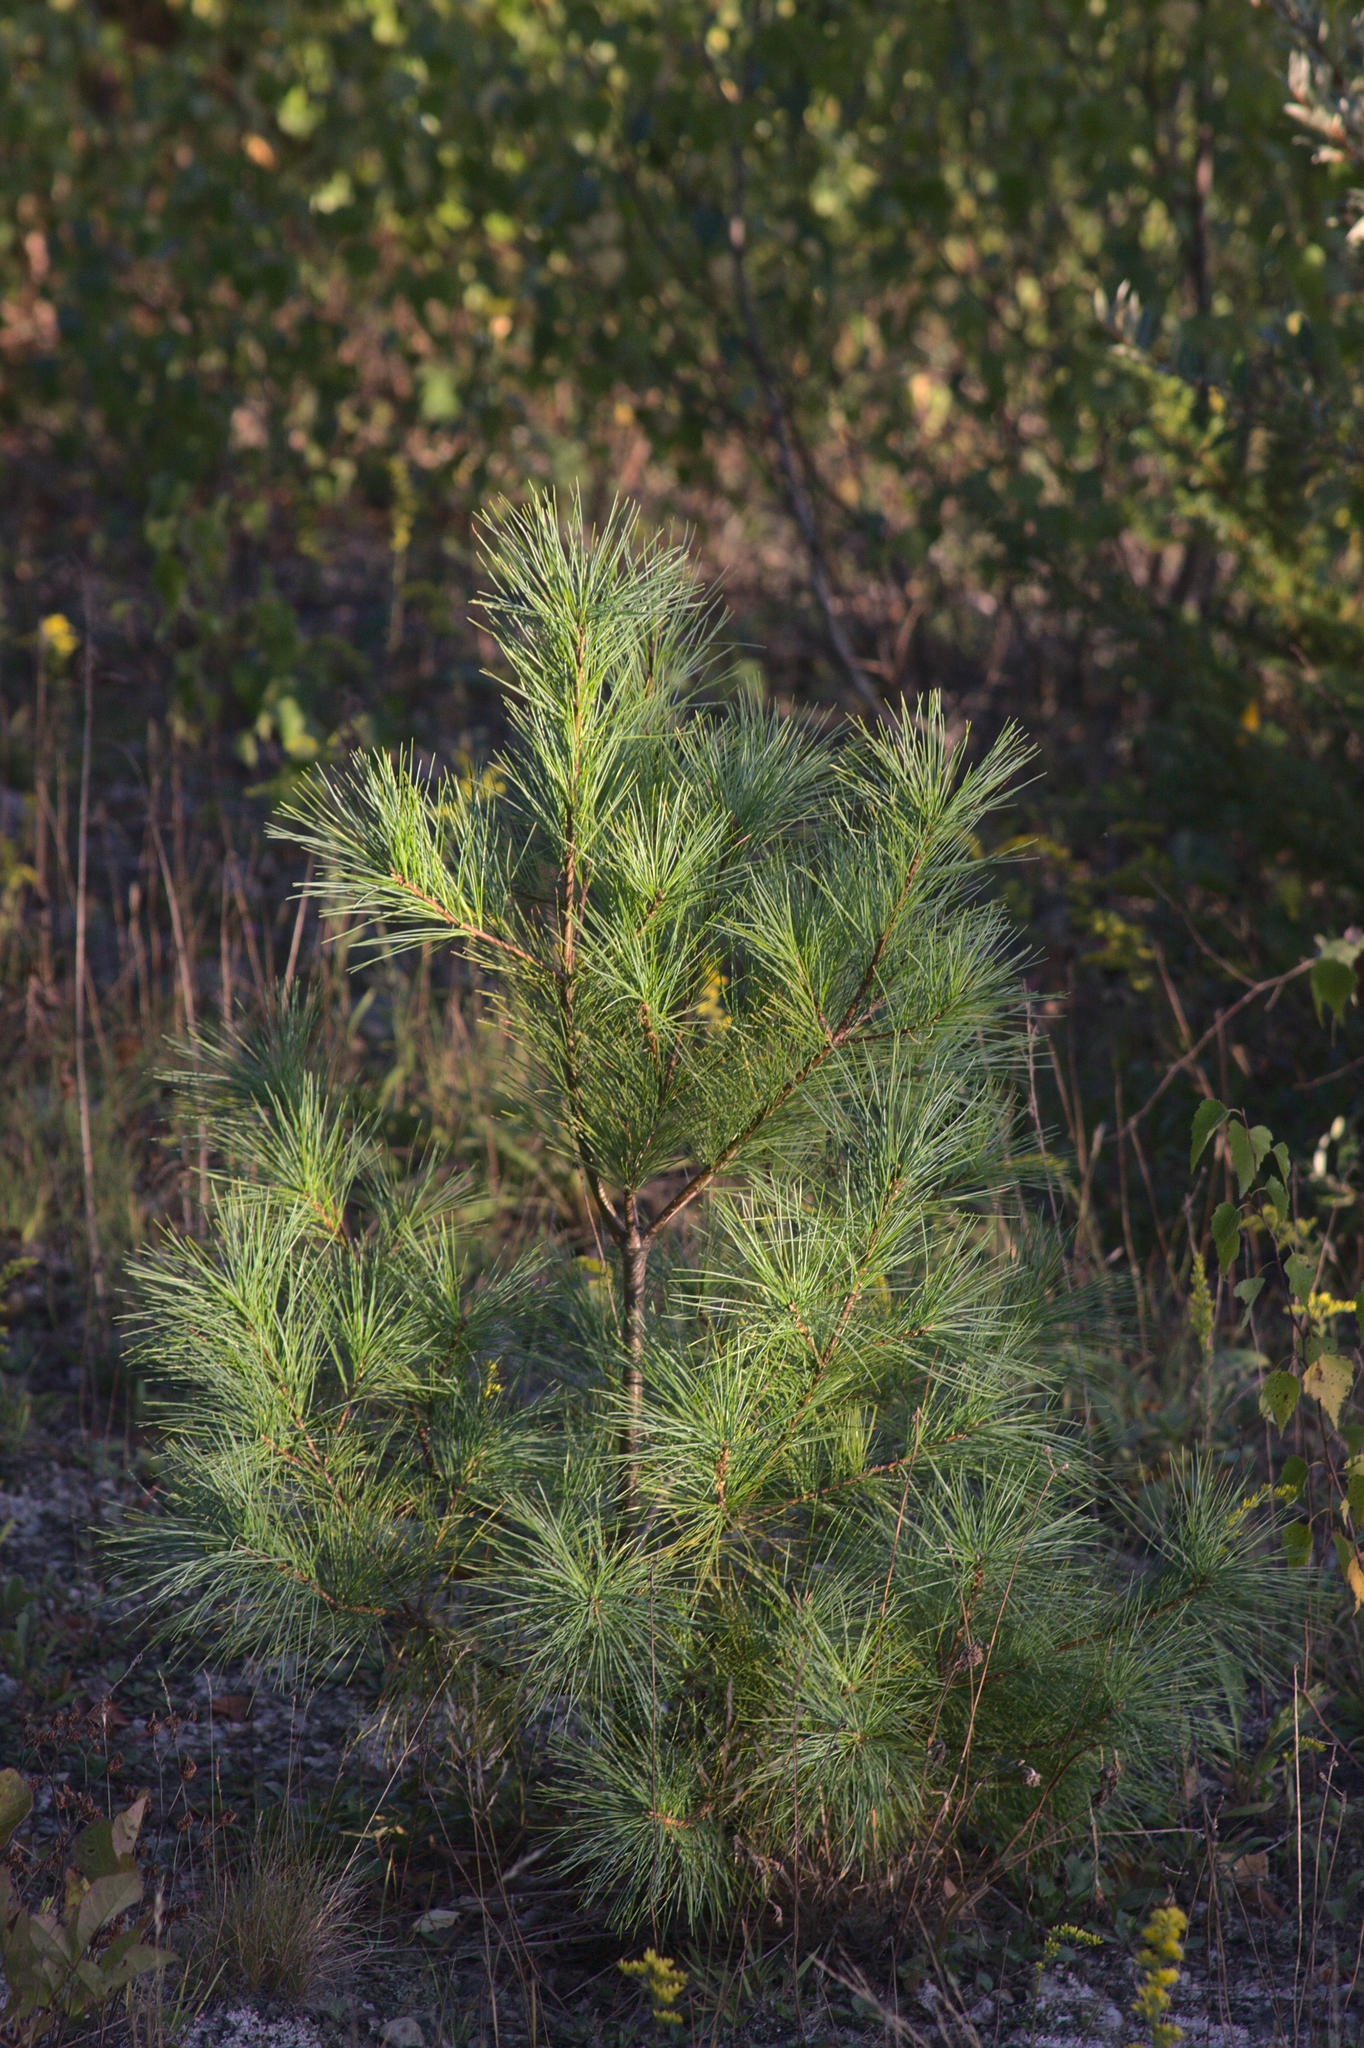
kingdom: Plantae
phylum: Tracheophyta
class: Pinopsida
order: Pinales
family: Pinaceae
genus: Pinus
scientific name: Pinus strobus
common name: Weymouth pine
